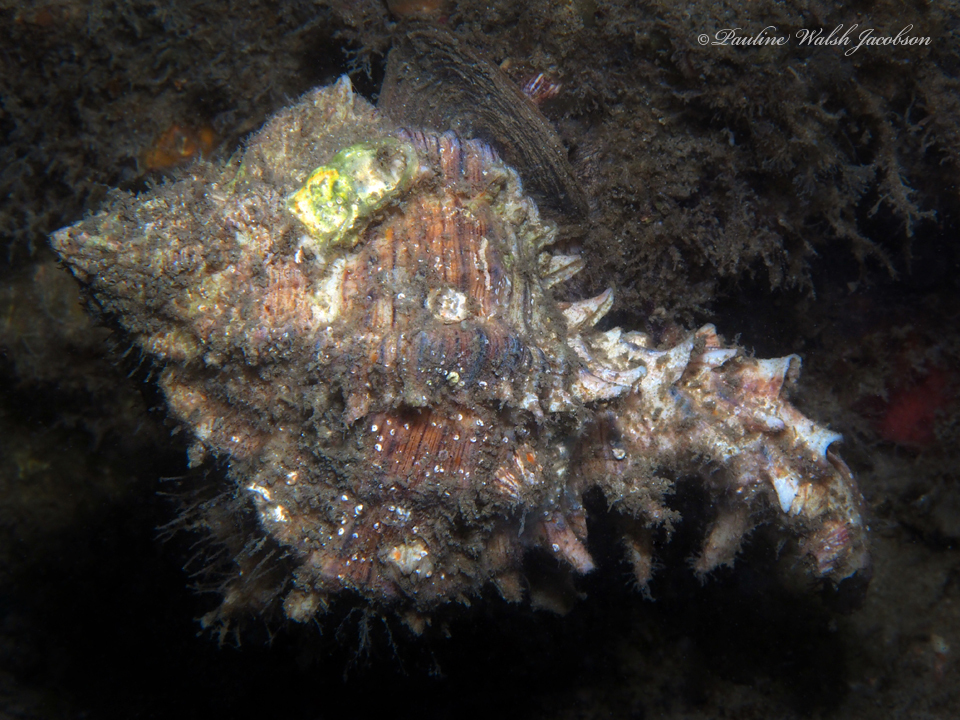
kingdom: Animalia
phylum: Mollusca
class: Gastropoda
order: Neogastropoda
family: Muricidae
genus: Hexaplex
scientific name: Hexaplex fulvescens
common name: Tawny murex
